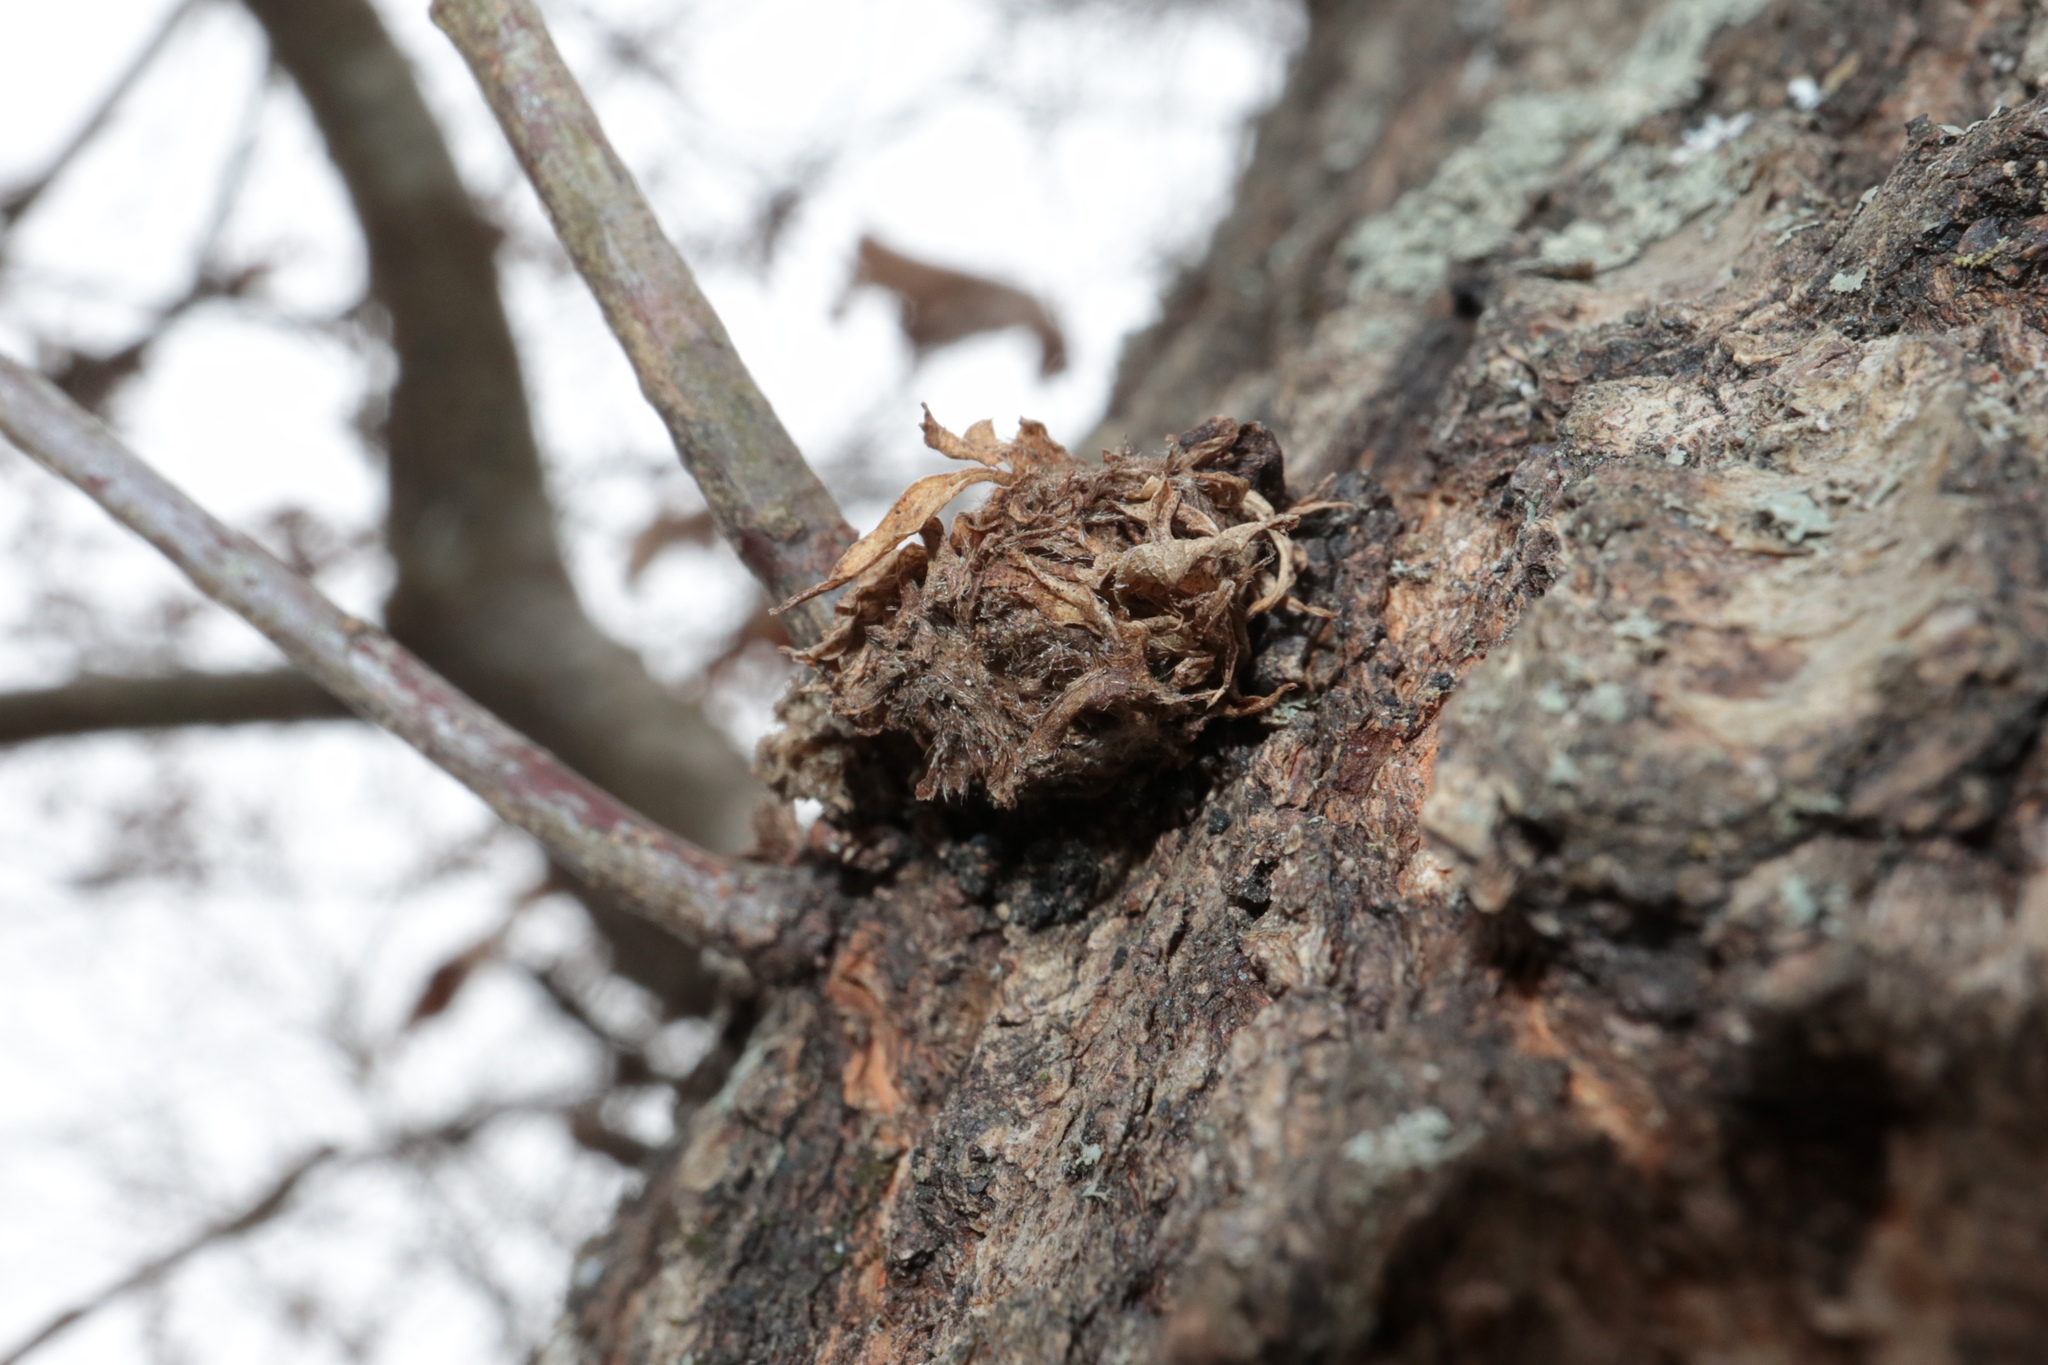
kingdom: Animalia
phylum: Arthropoda
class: Insecta
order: Hymenoptera
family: Cynipidae
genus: Dryocosmus
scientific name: Dryocosmus
